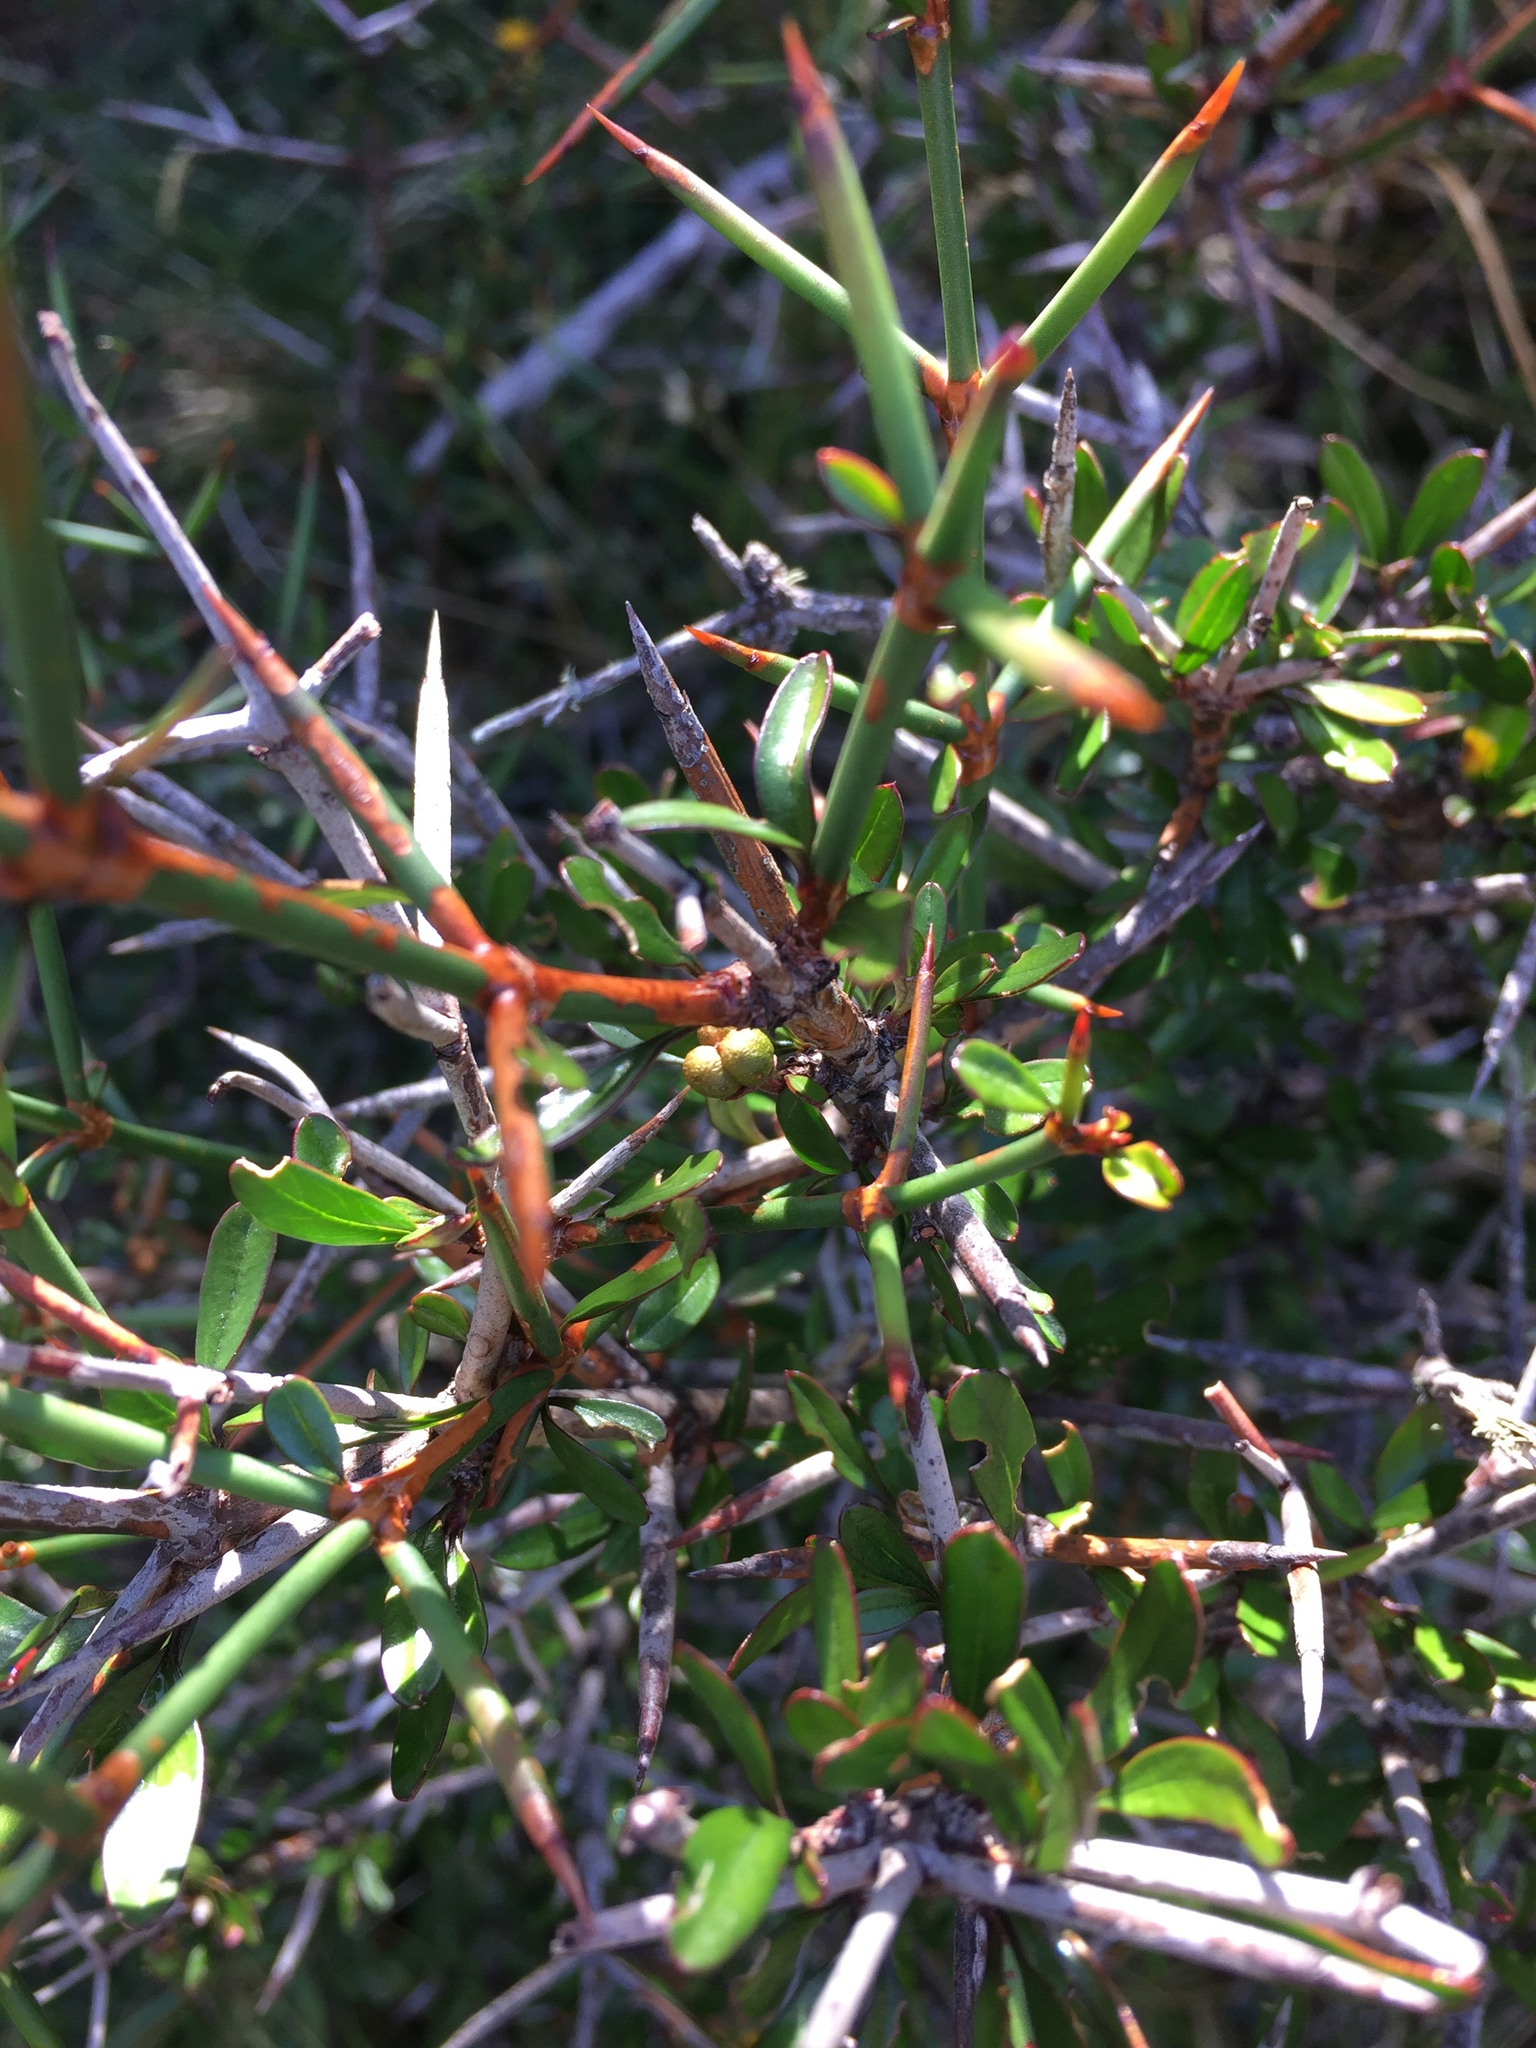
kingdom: Plantae
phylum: Tracheophyta
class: Magnoliopsida
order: Rosales
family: Rhamnaceae
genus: Discaria
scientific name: Discaria toumatou
